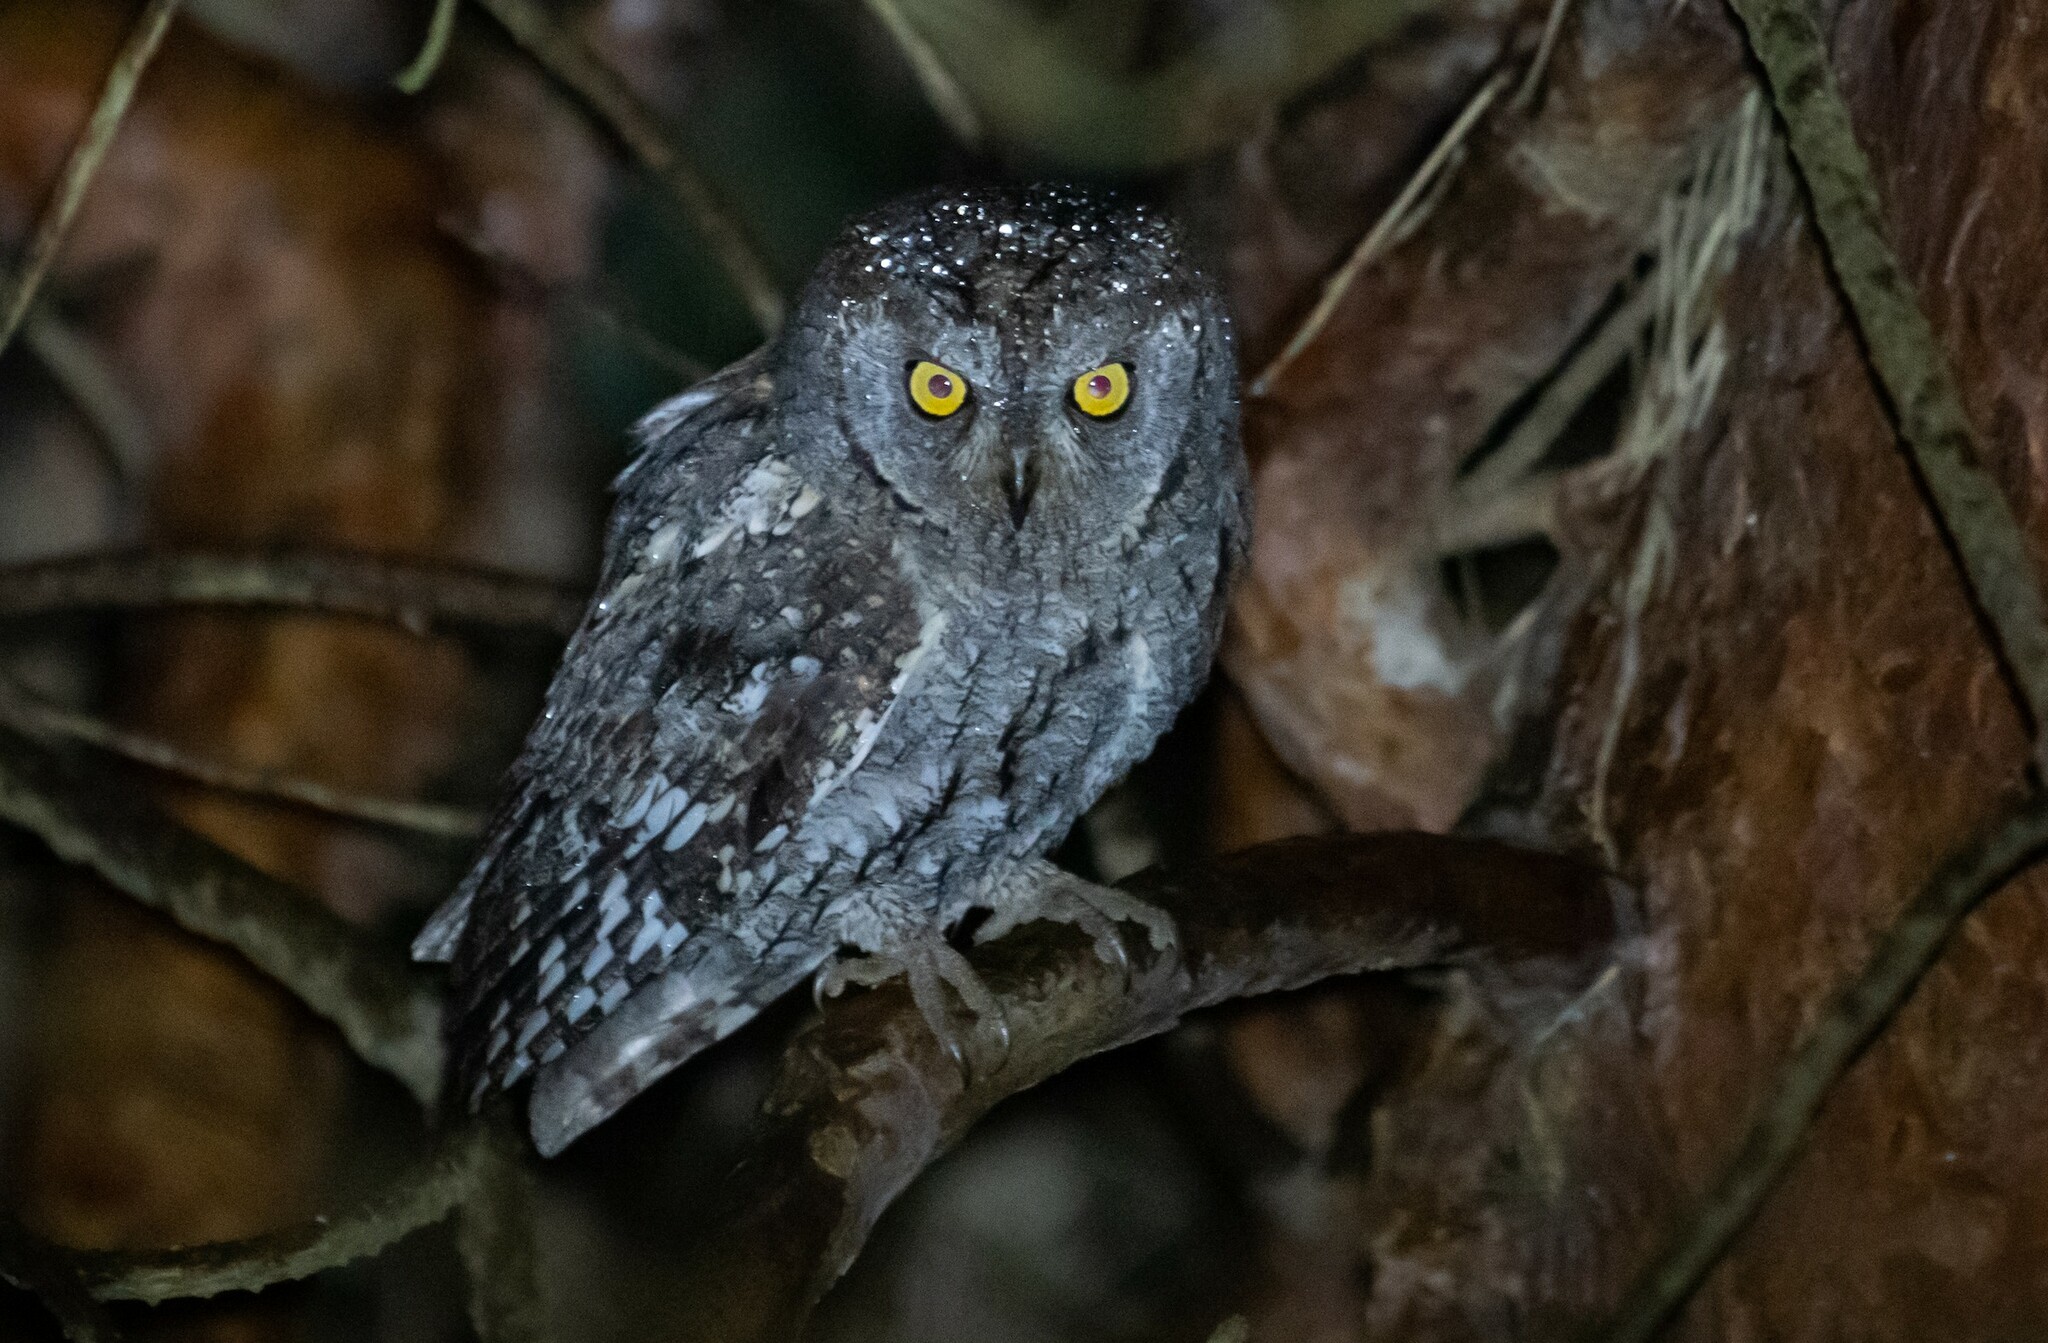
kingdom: Animalia
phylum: Chordata
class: Aves
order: Strigiformes
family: Strigidae
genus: Otus
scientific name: Otus scops
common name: Eurasian scops owl
